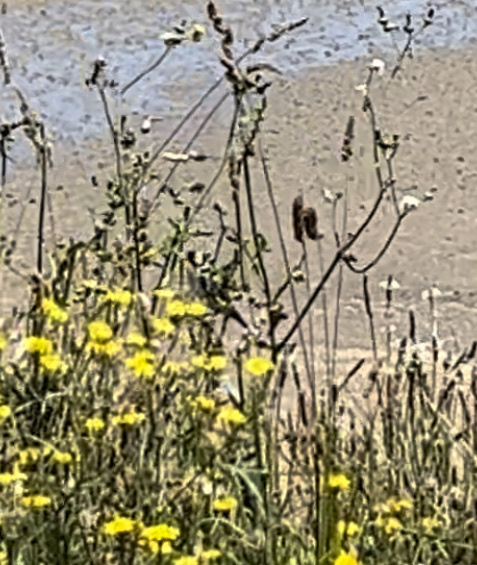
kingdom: Animalia
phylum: Chordata
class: Aves
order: Passeriformes
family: Fringillidae
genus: Carduelis
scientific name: Carduelis carduelis
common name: European goldfinch
